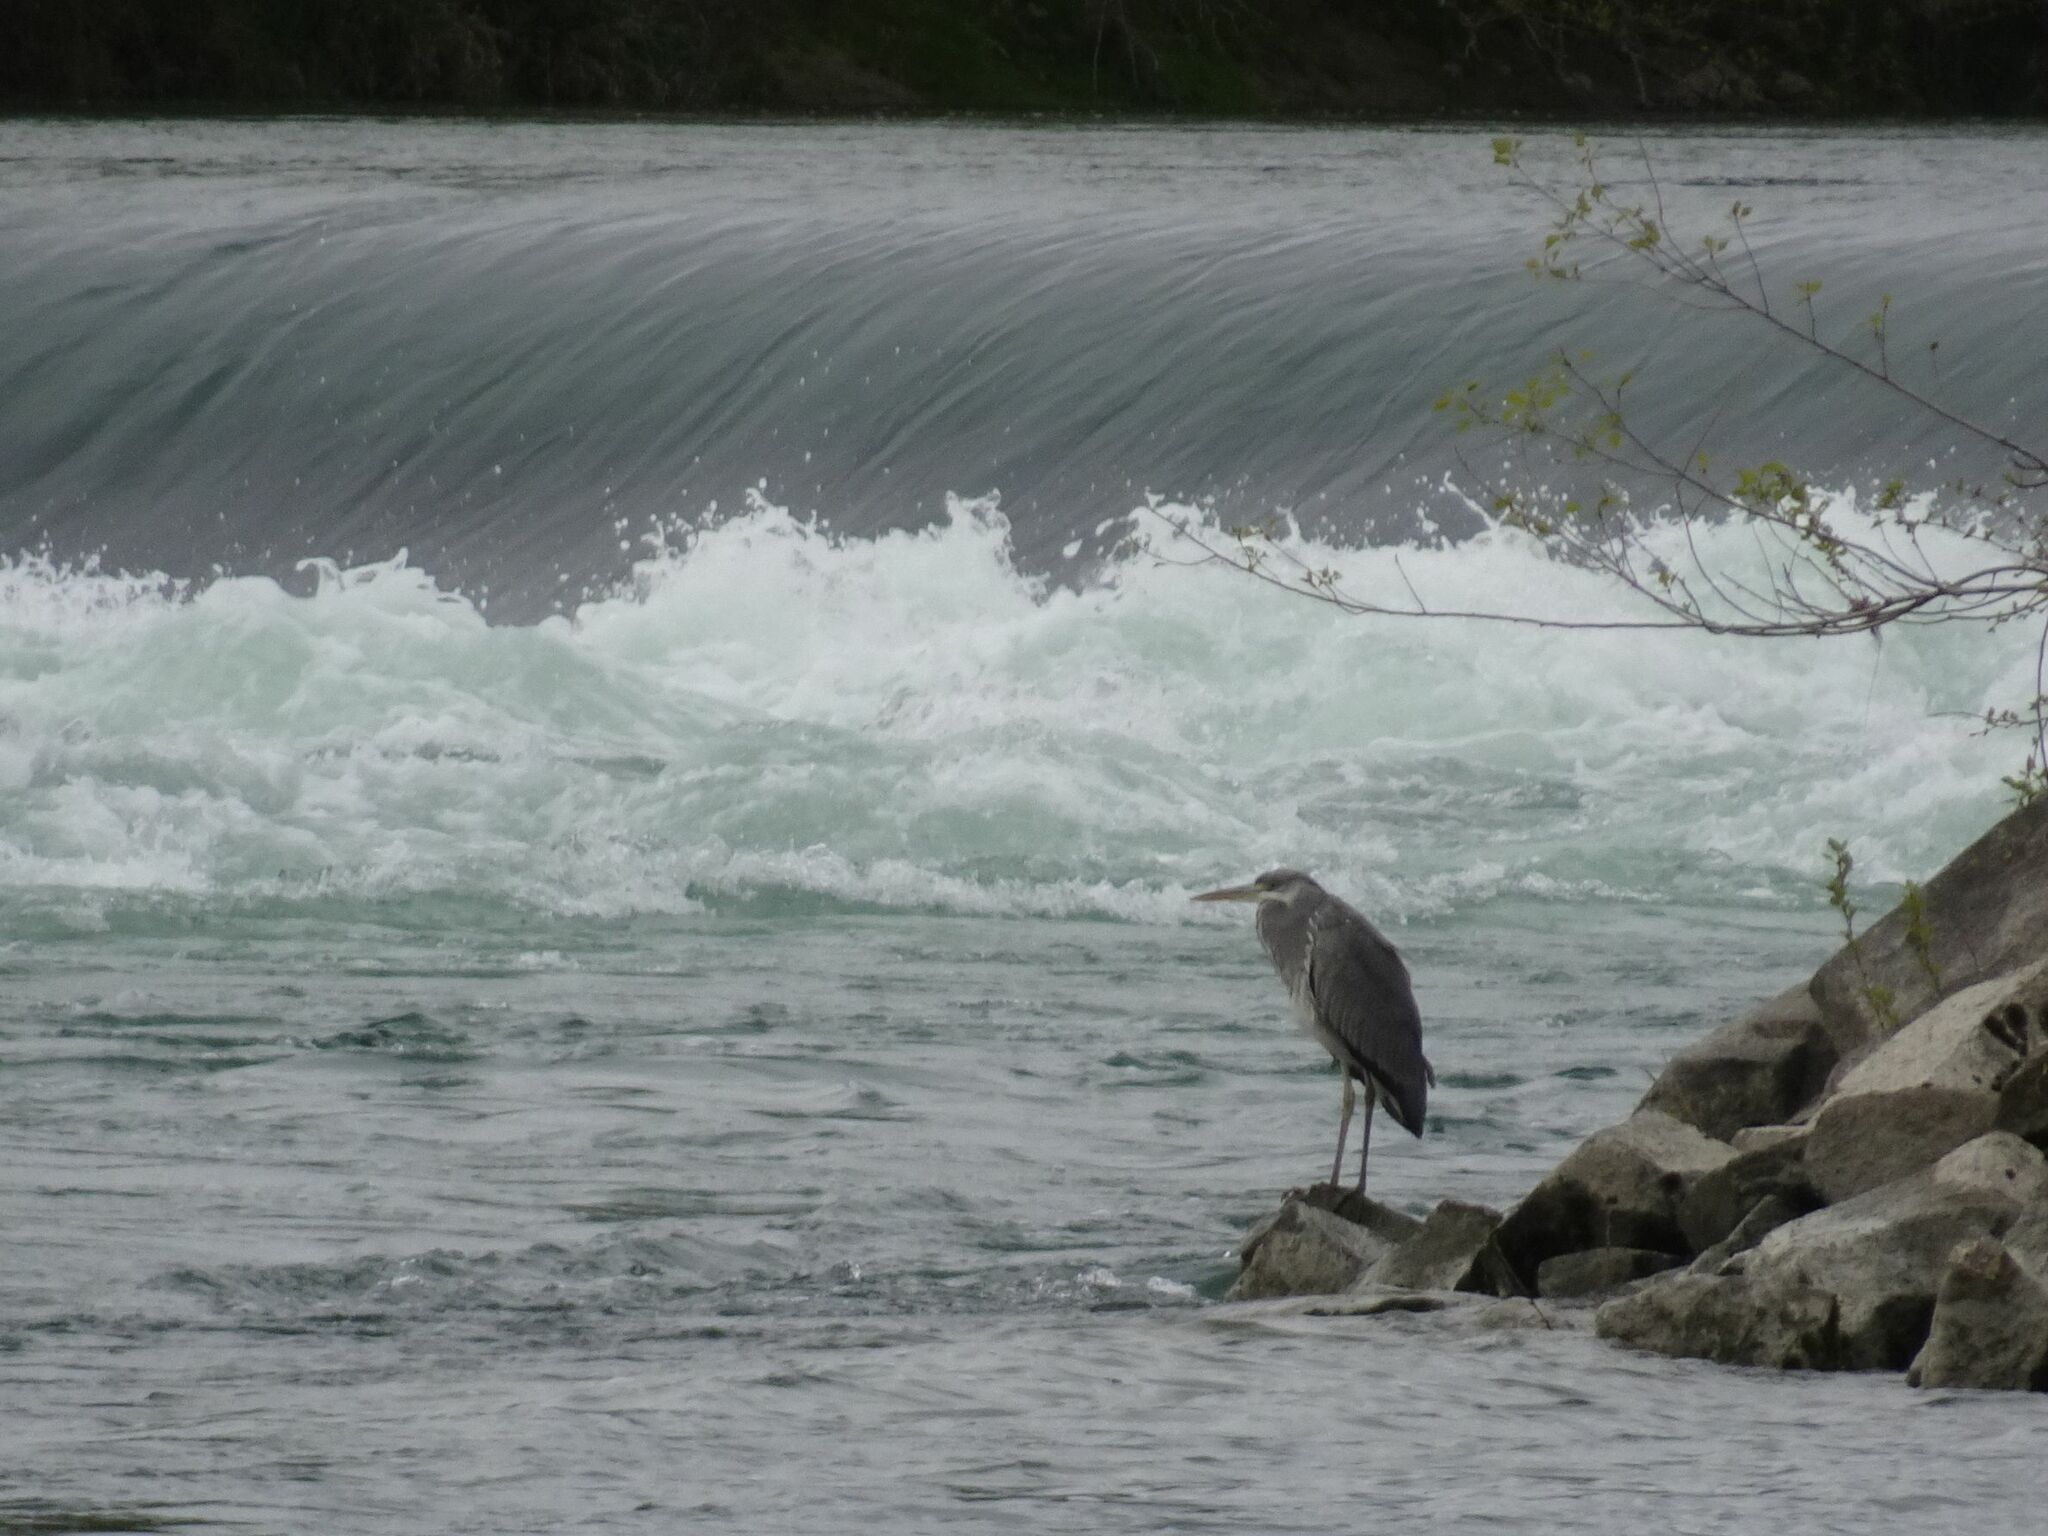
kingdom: Animalia
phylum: Chordata
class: Aves
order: Pelecaniformes
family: Ardeidae
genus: Ardea
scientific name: Ardea cinerea
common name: Grey heron
